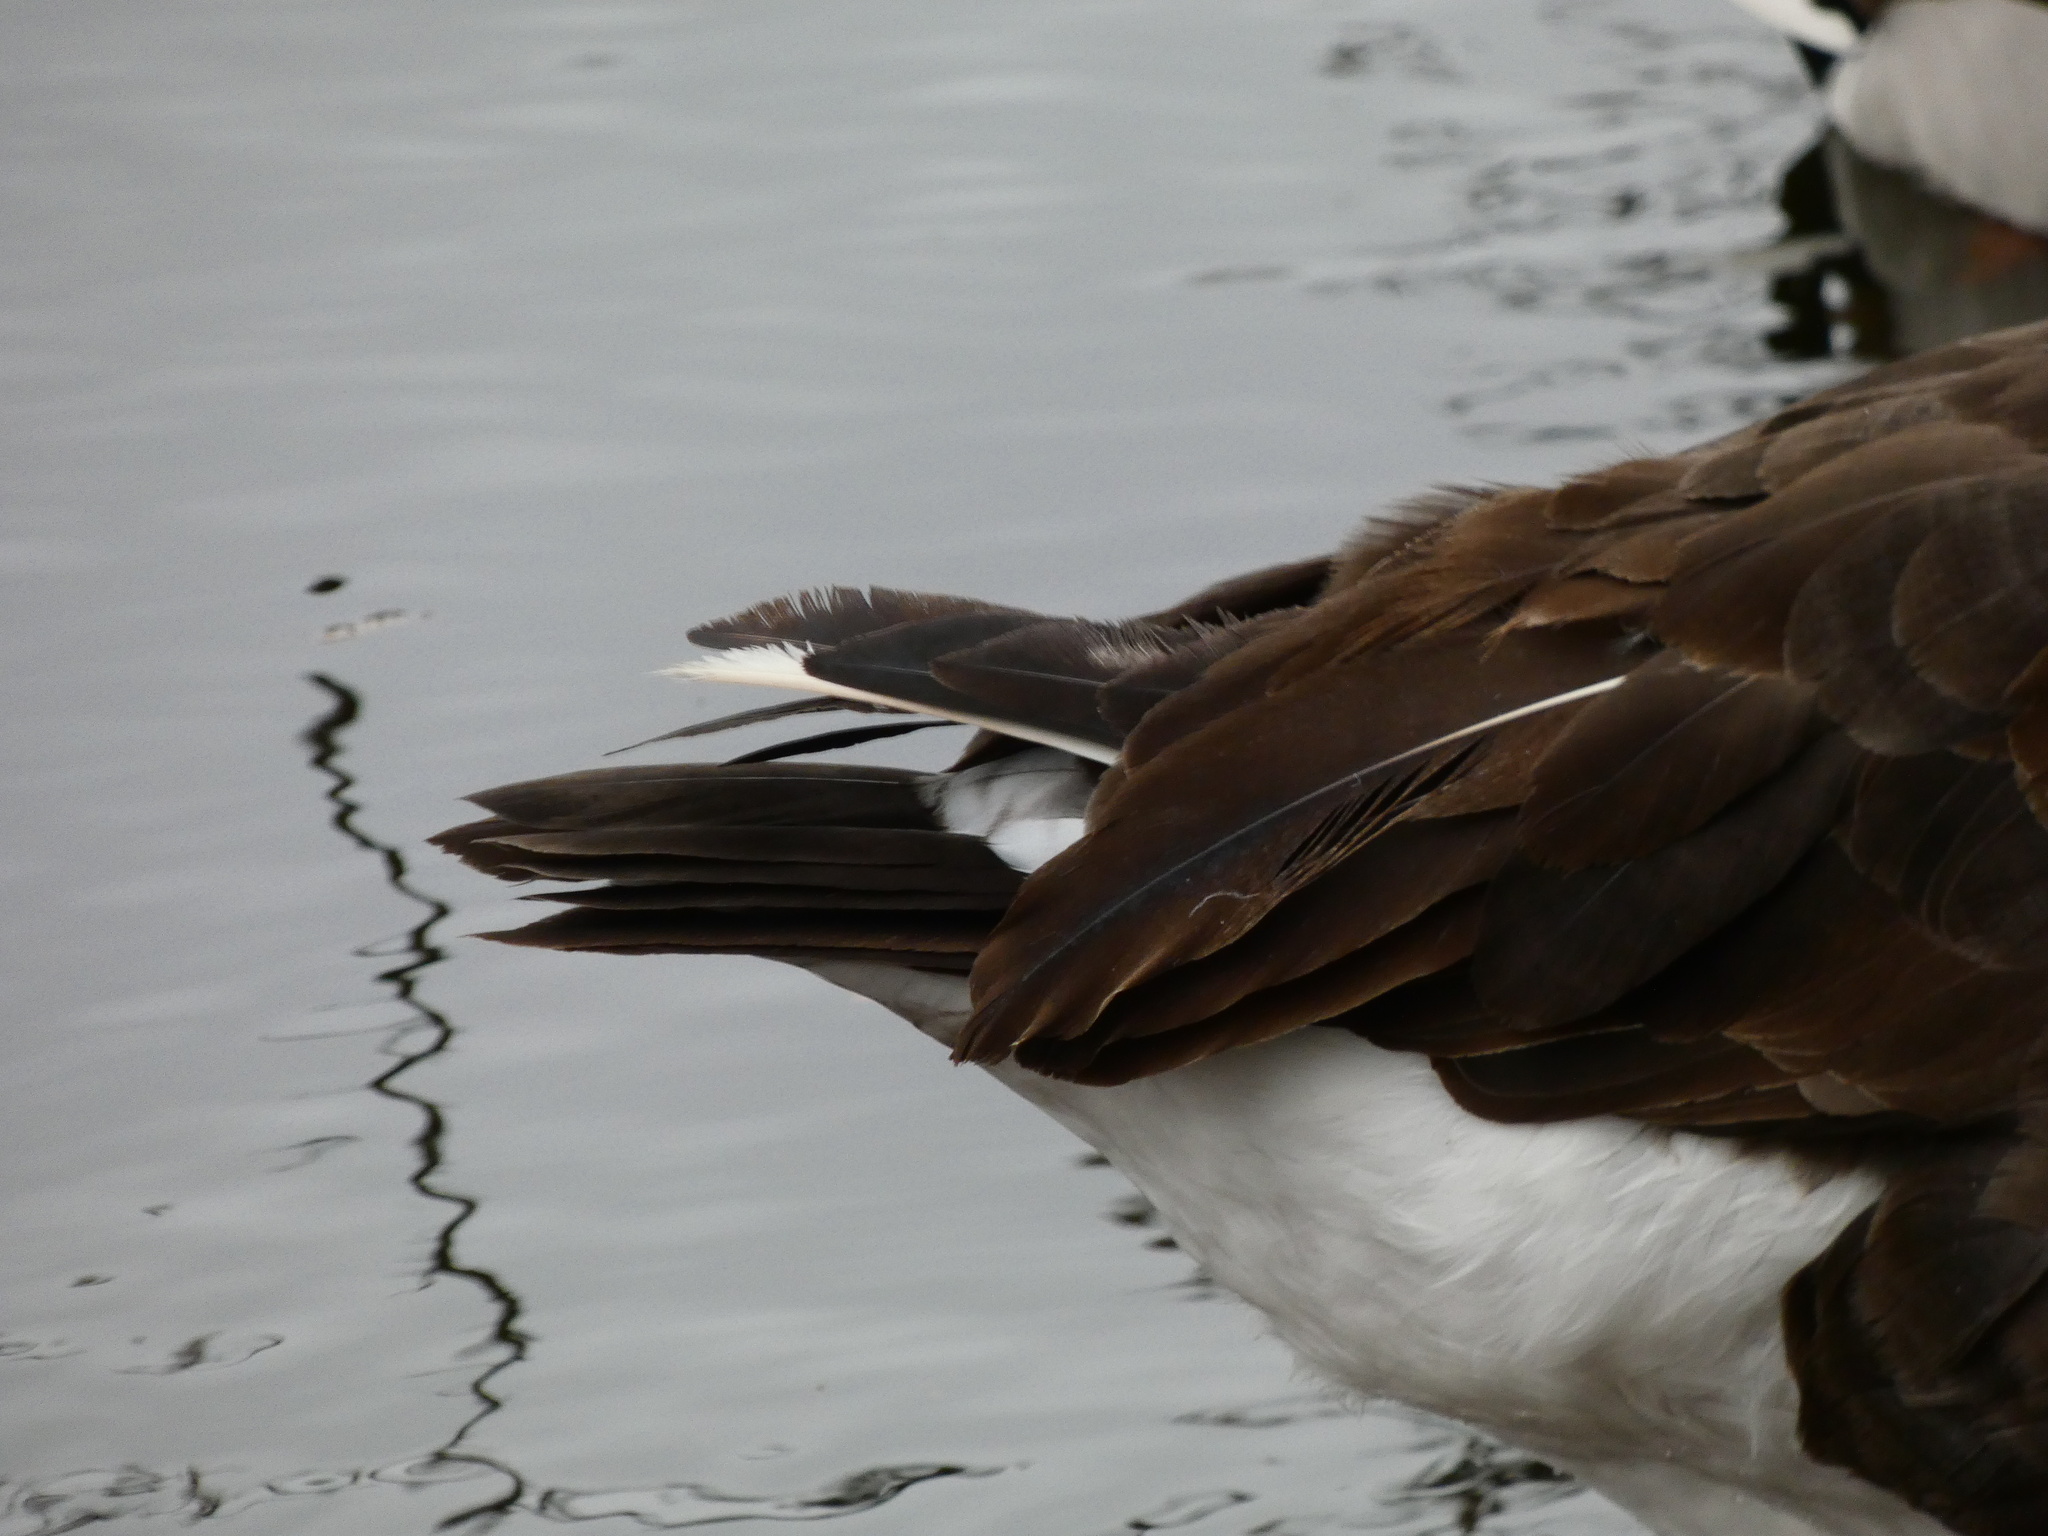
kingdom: Animalia
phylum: Chordata
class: Aves
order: Anseriformes
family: Anatidae
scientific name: Anatidae
